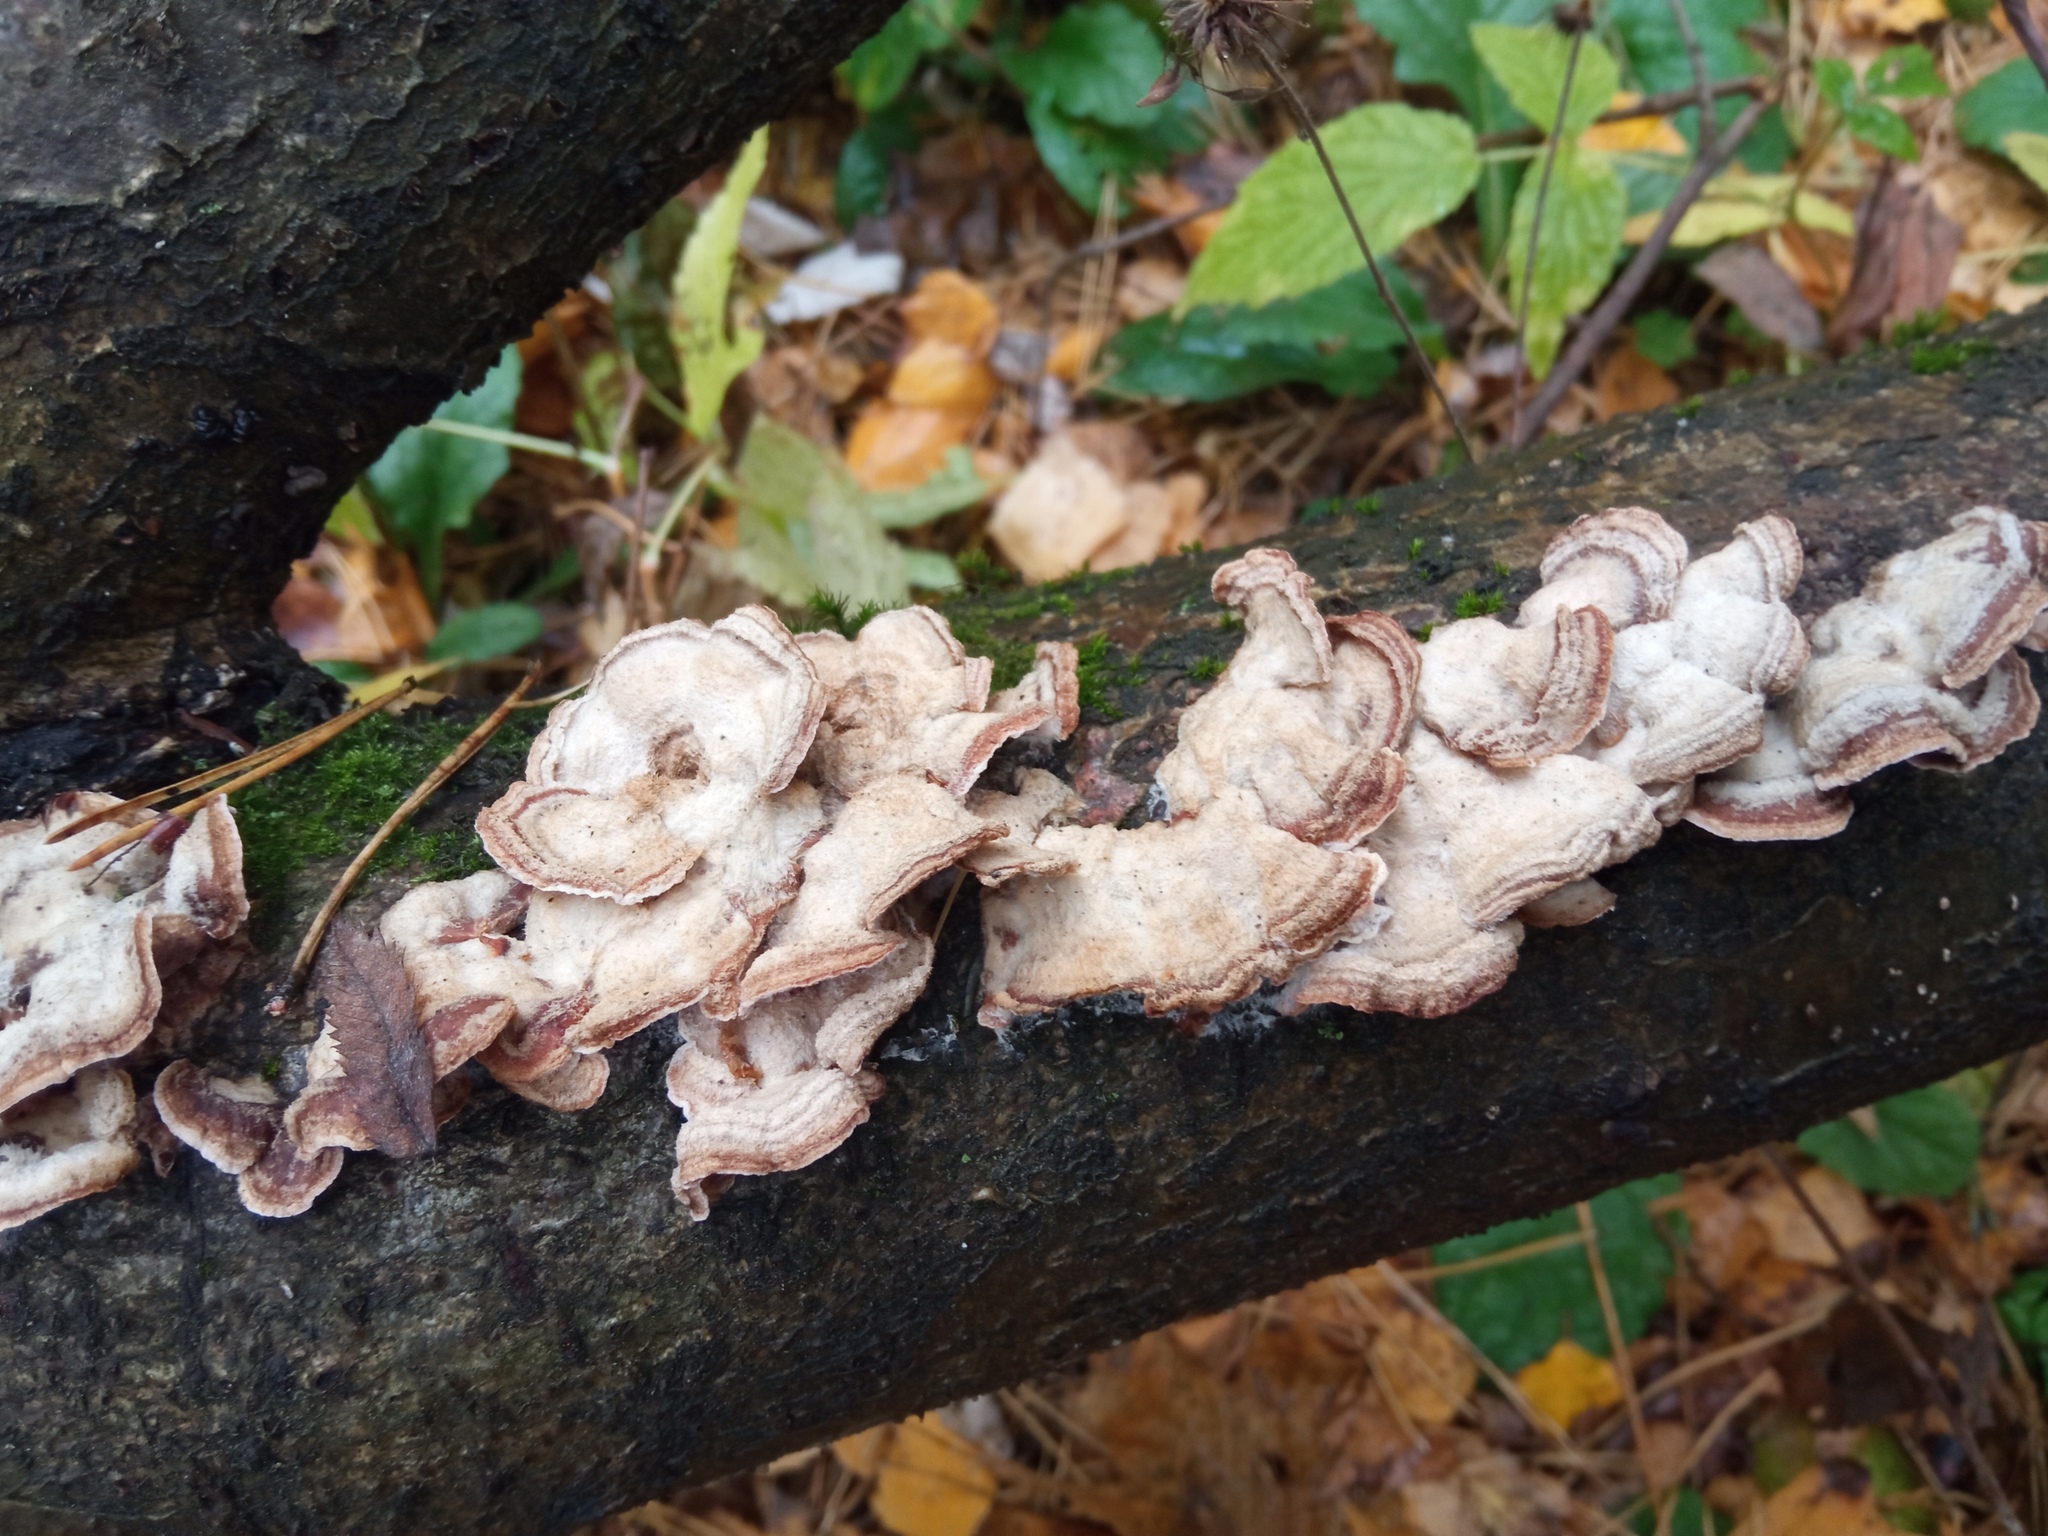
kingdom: Fungi
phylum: Basidiomycota
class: Agaricomycetes
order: Agaricales
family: Cyphellaceae
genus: Chondrostereum
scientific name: Chondrostereum purpureum
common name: Silver leaf disease
